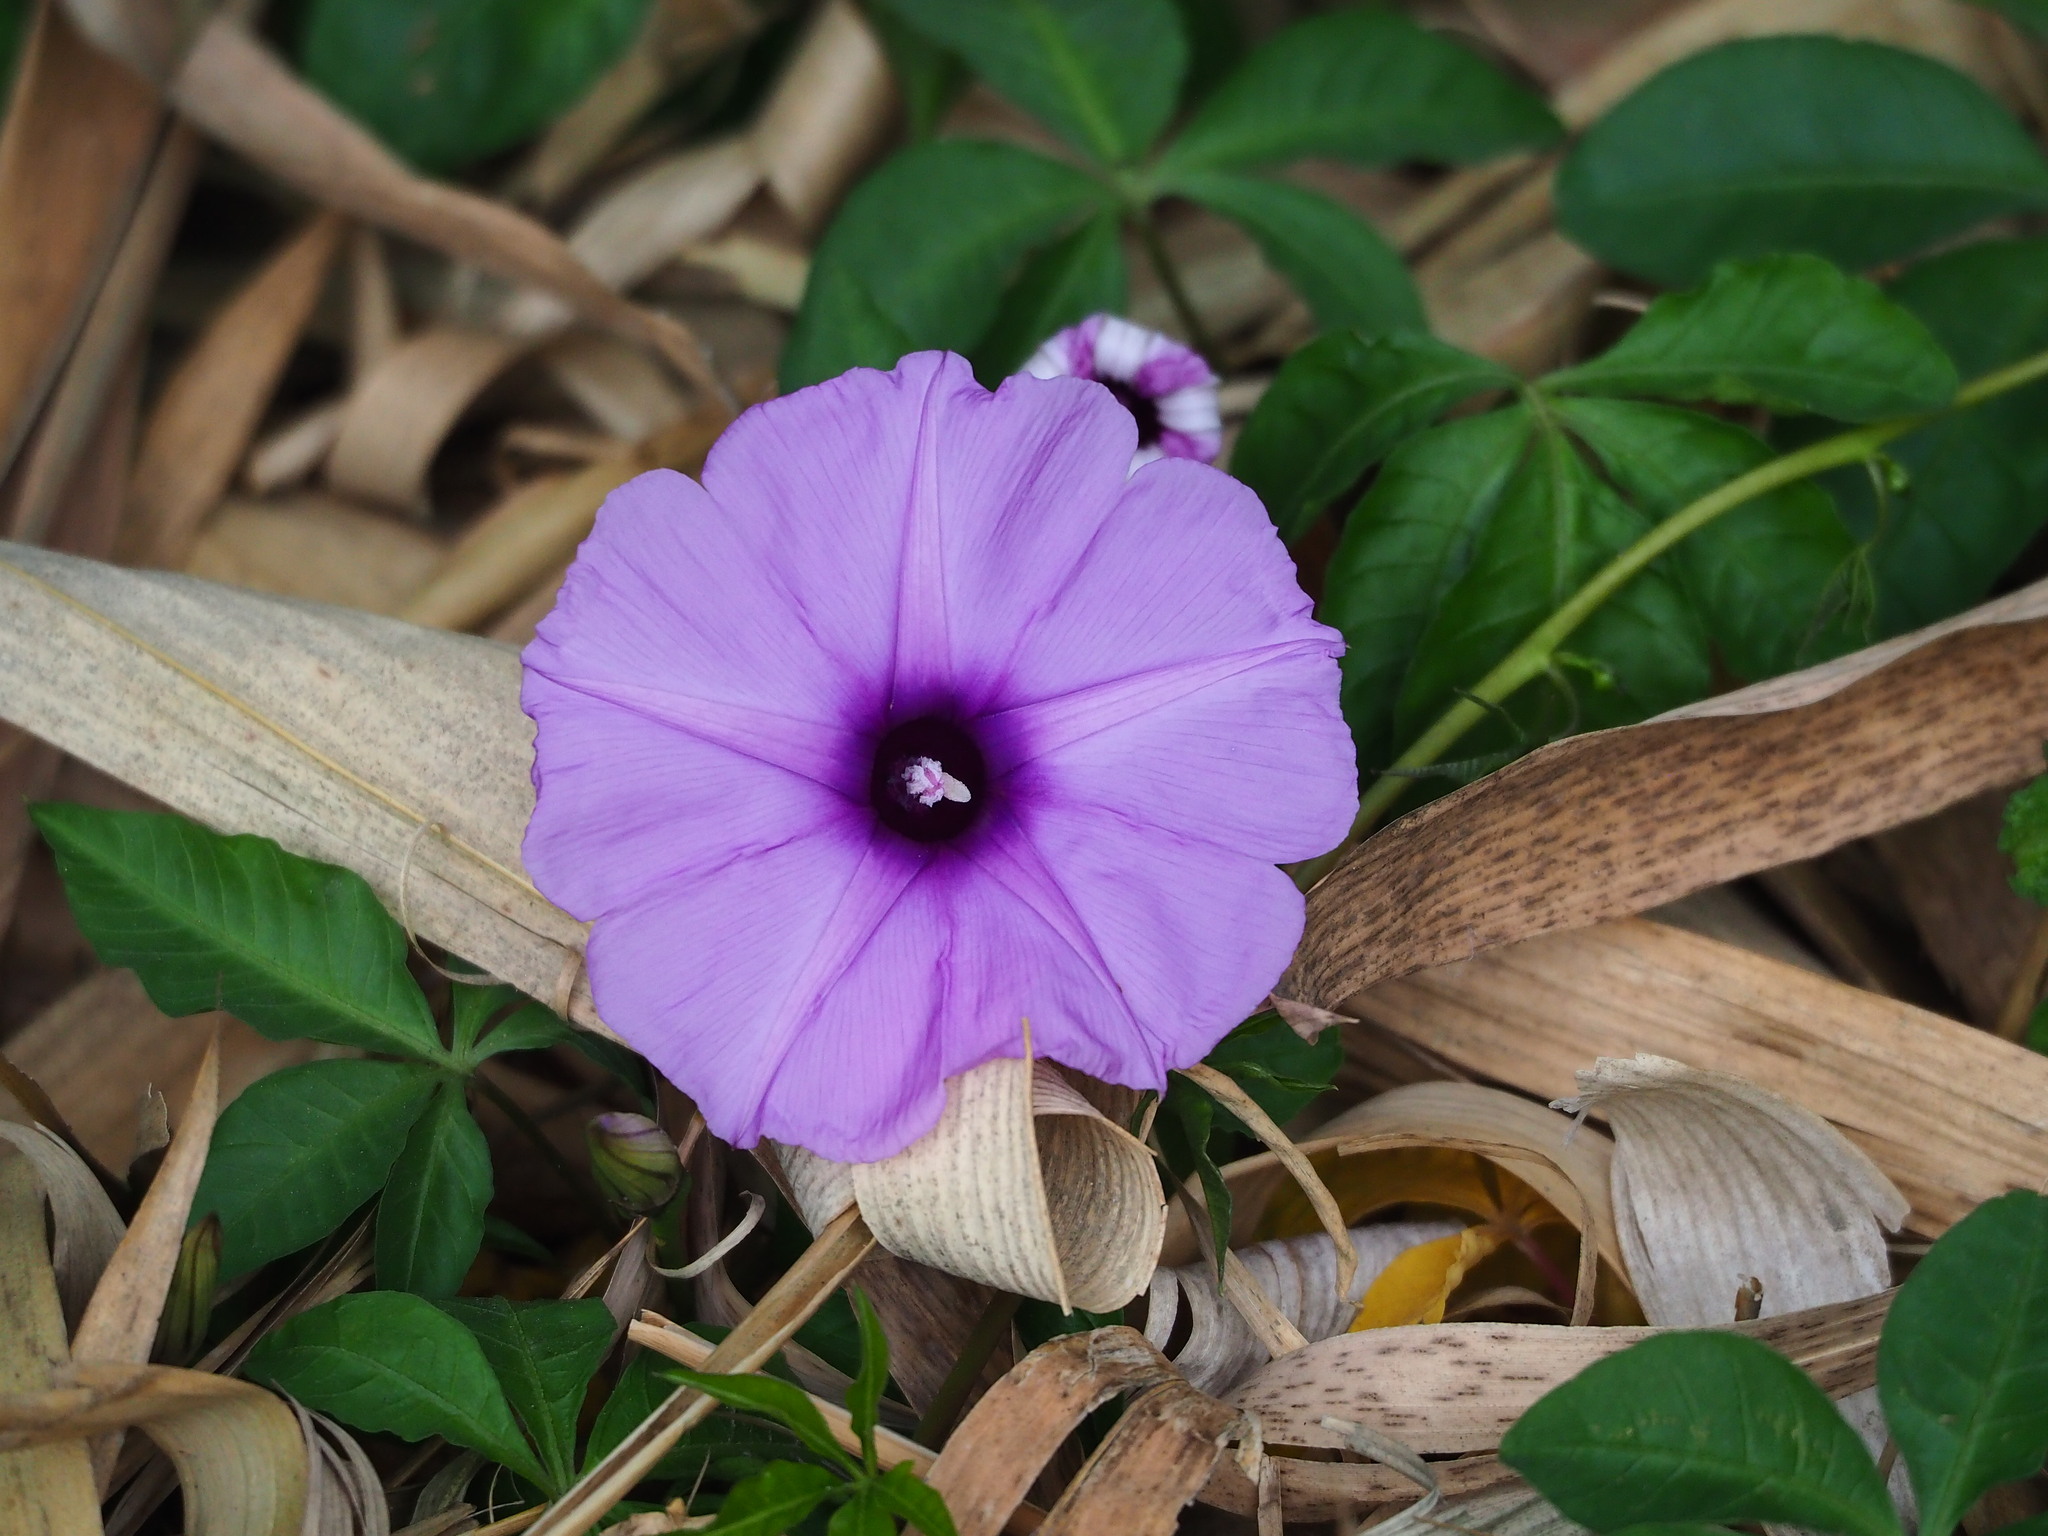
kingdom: Plantae
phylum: Tracheophyta
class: Magnoliopsida
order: Solanales
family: Convolvulaceae
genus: Ipomoea
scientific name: Ipomoea cairica
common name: Mile a minute vine
